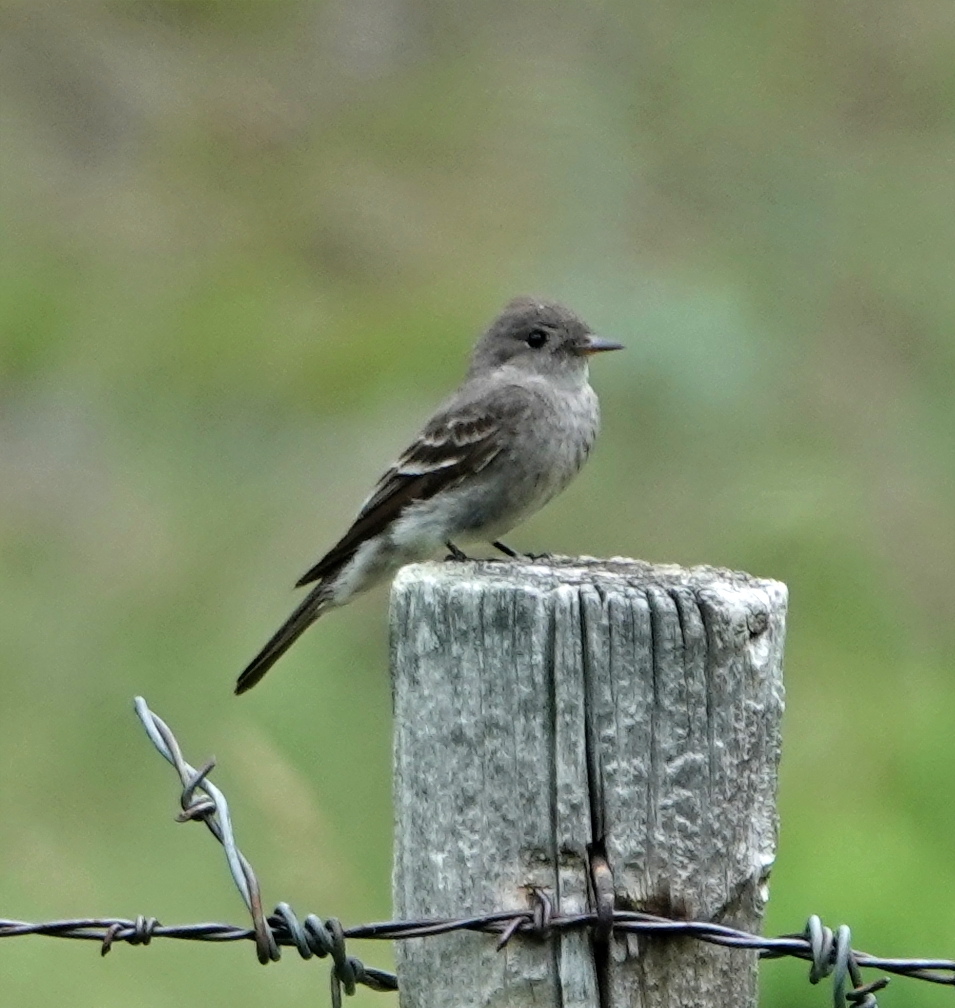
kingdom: Animalia
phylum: Chordata
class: Aves
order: Passeriformes
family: Tyrannidae
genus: Contopus
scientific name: Contopus sordidulus
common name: Western wood-pewee
